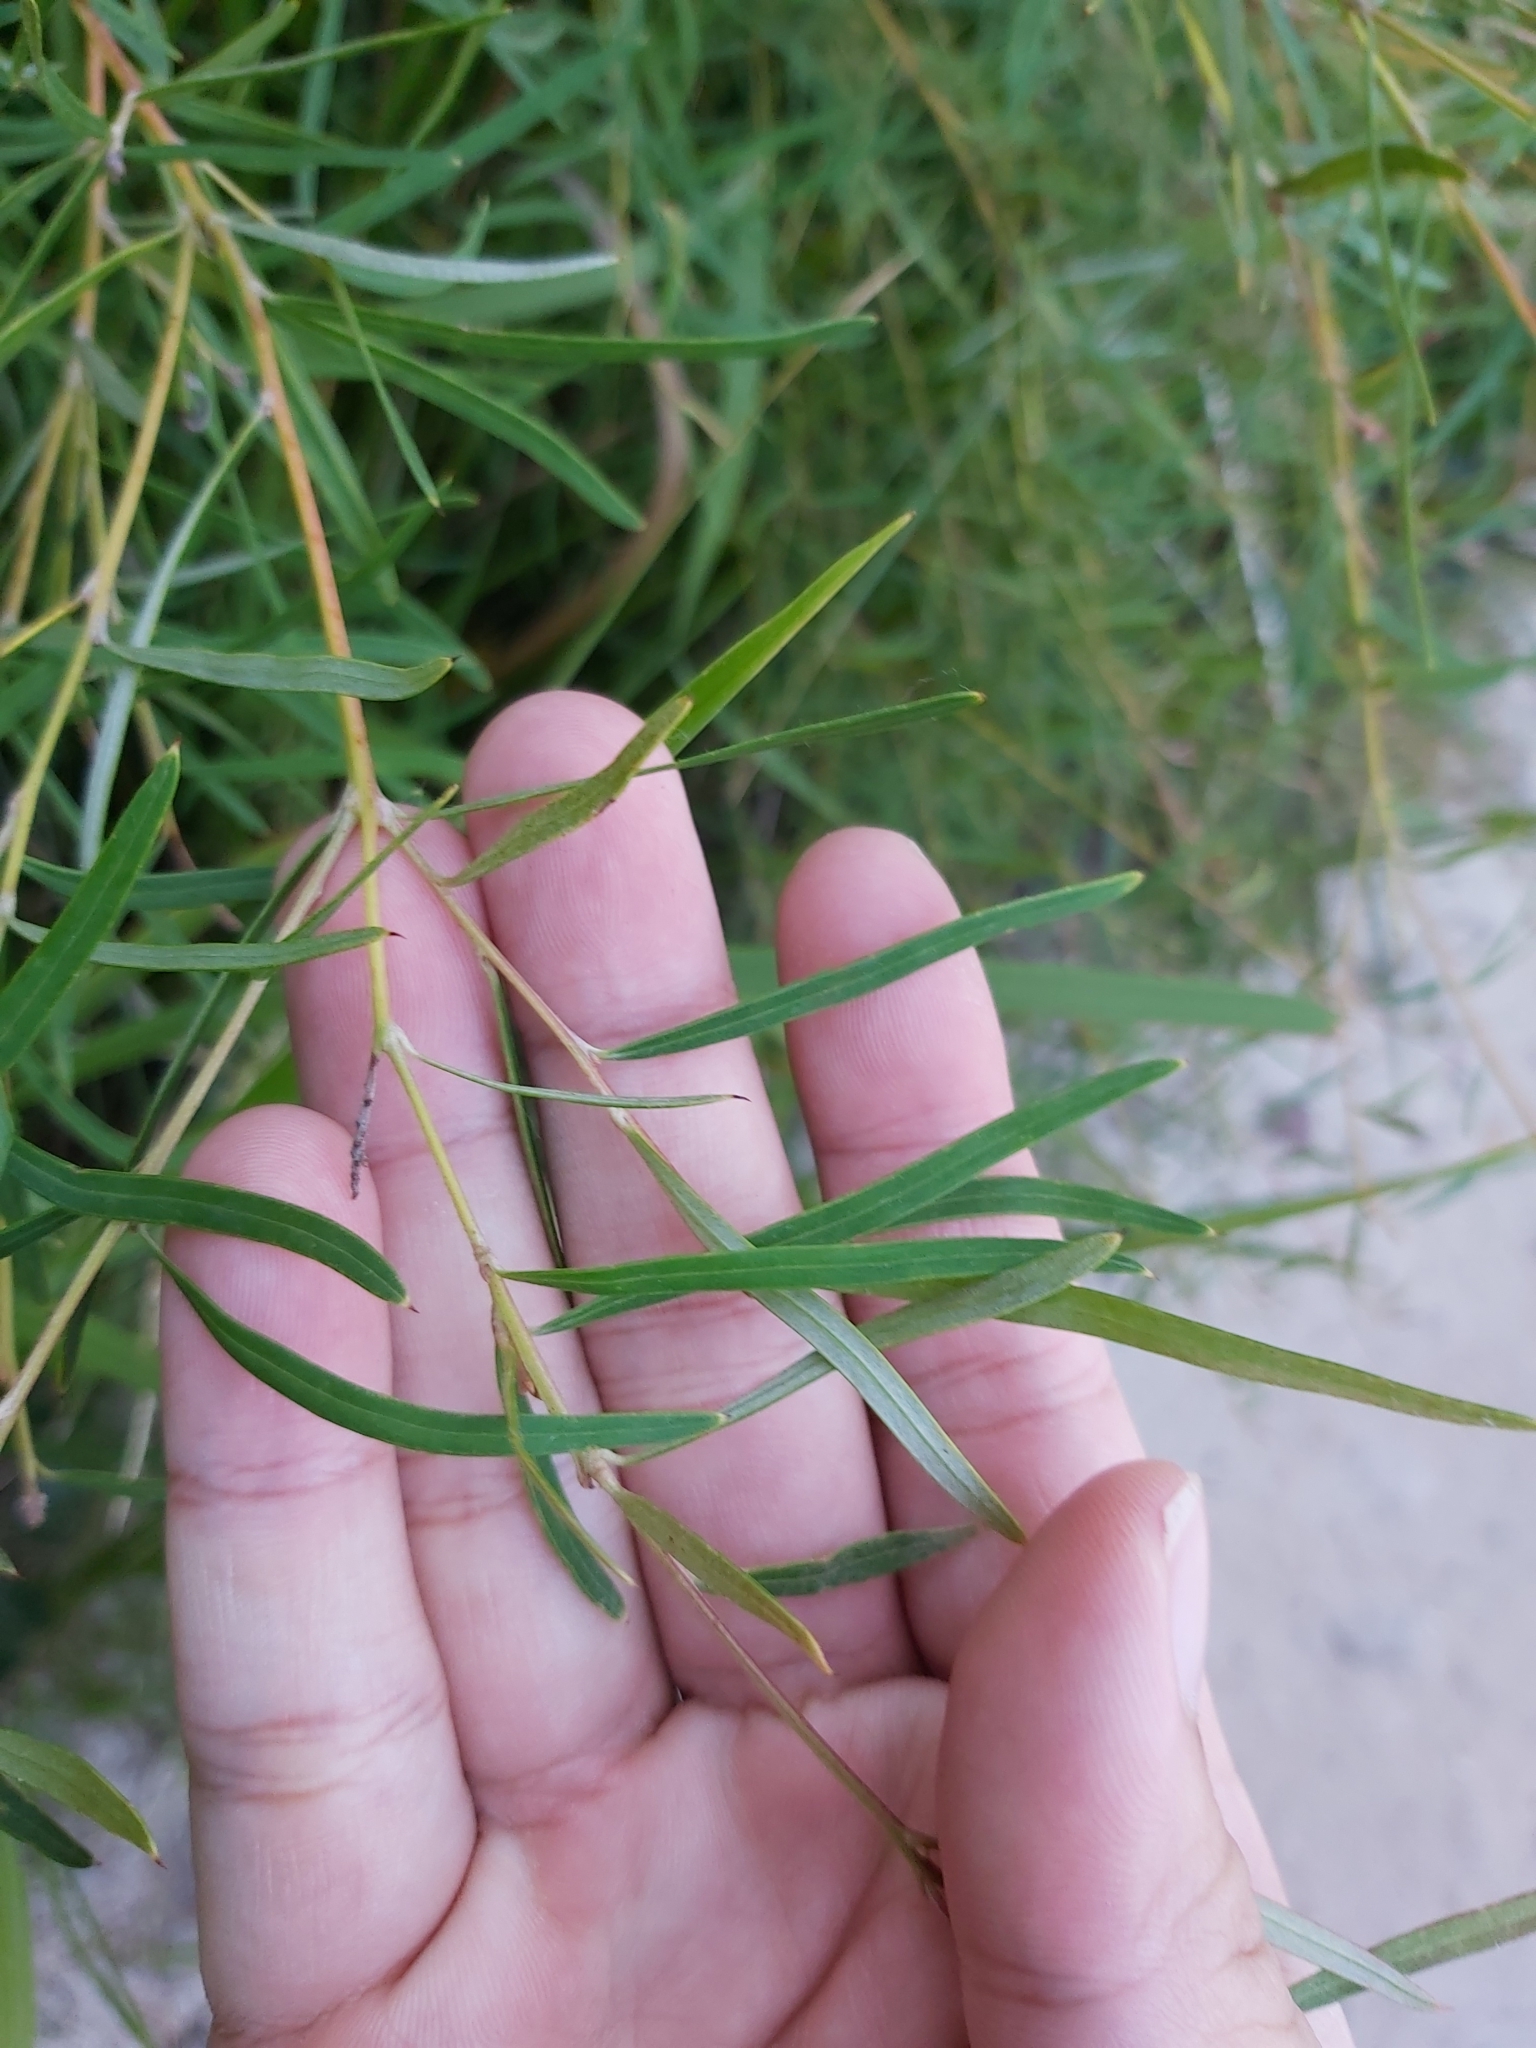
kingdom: Plantae
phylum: Tracheophyta
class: Magnoliopsida
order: Proteales
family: Proteaceae
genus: Grevillea
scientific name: Grevillea linearifolia
